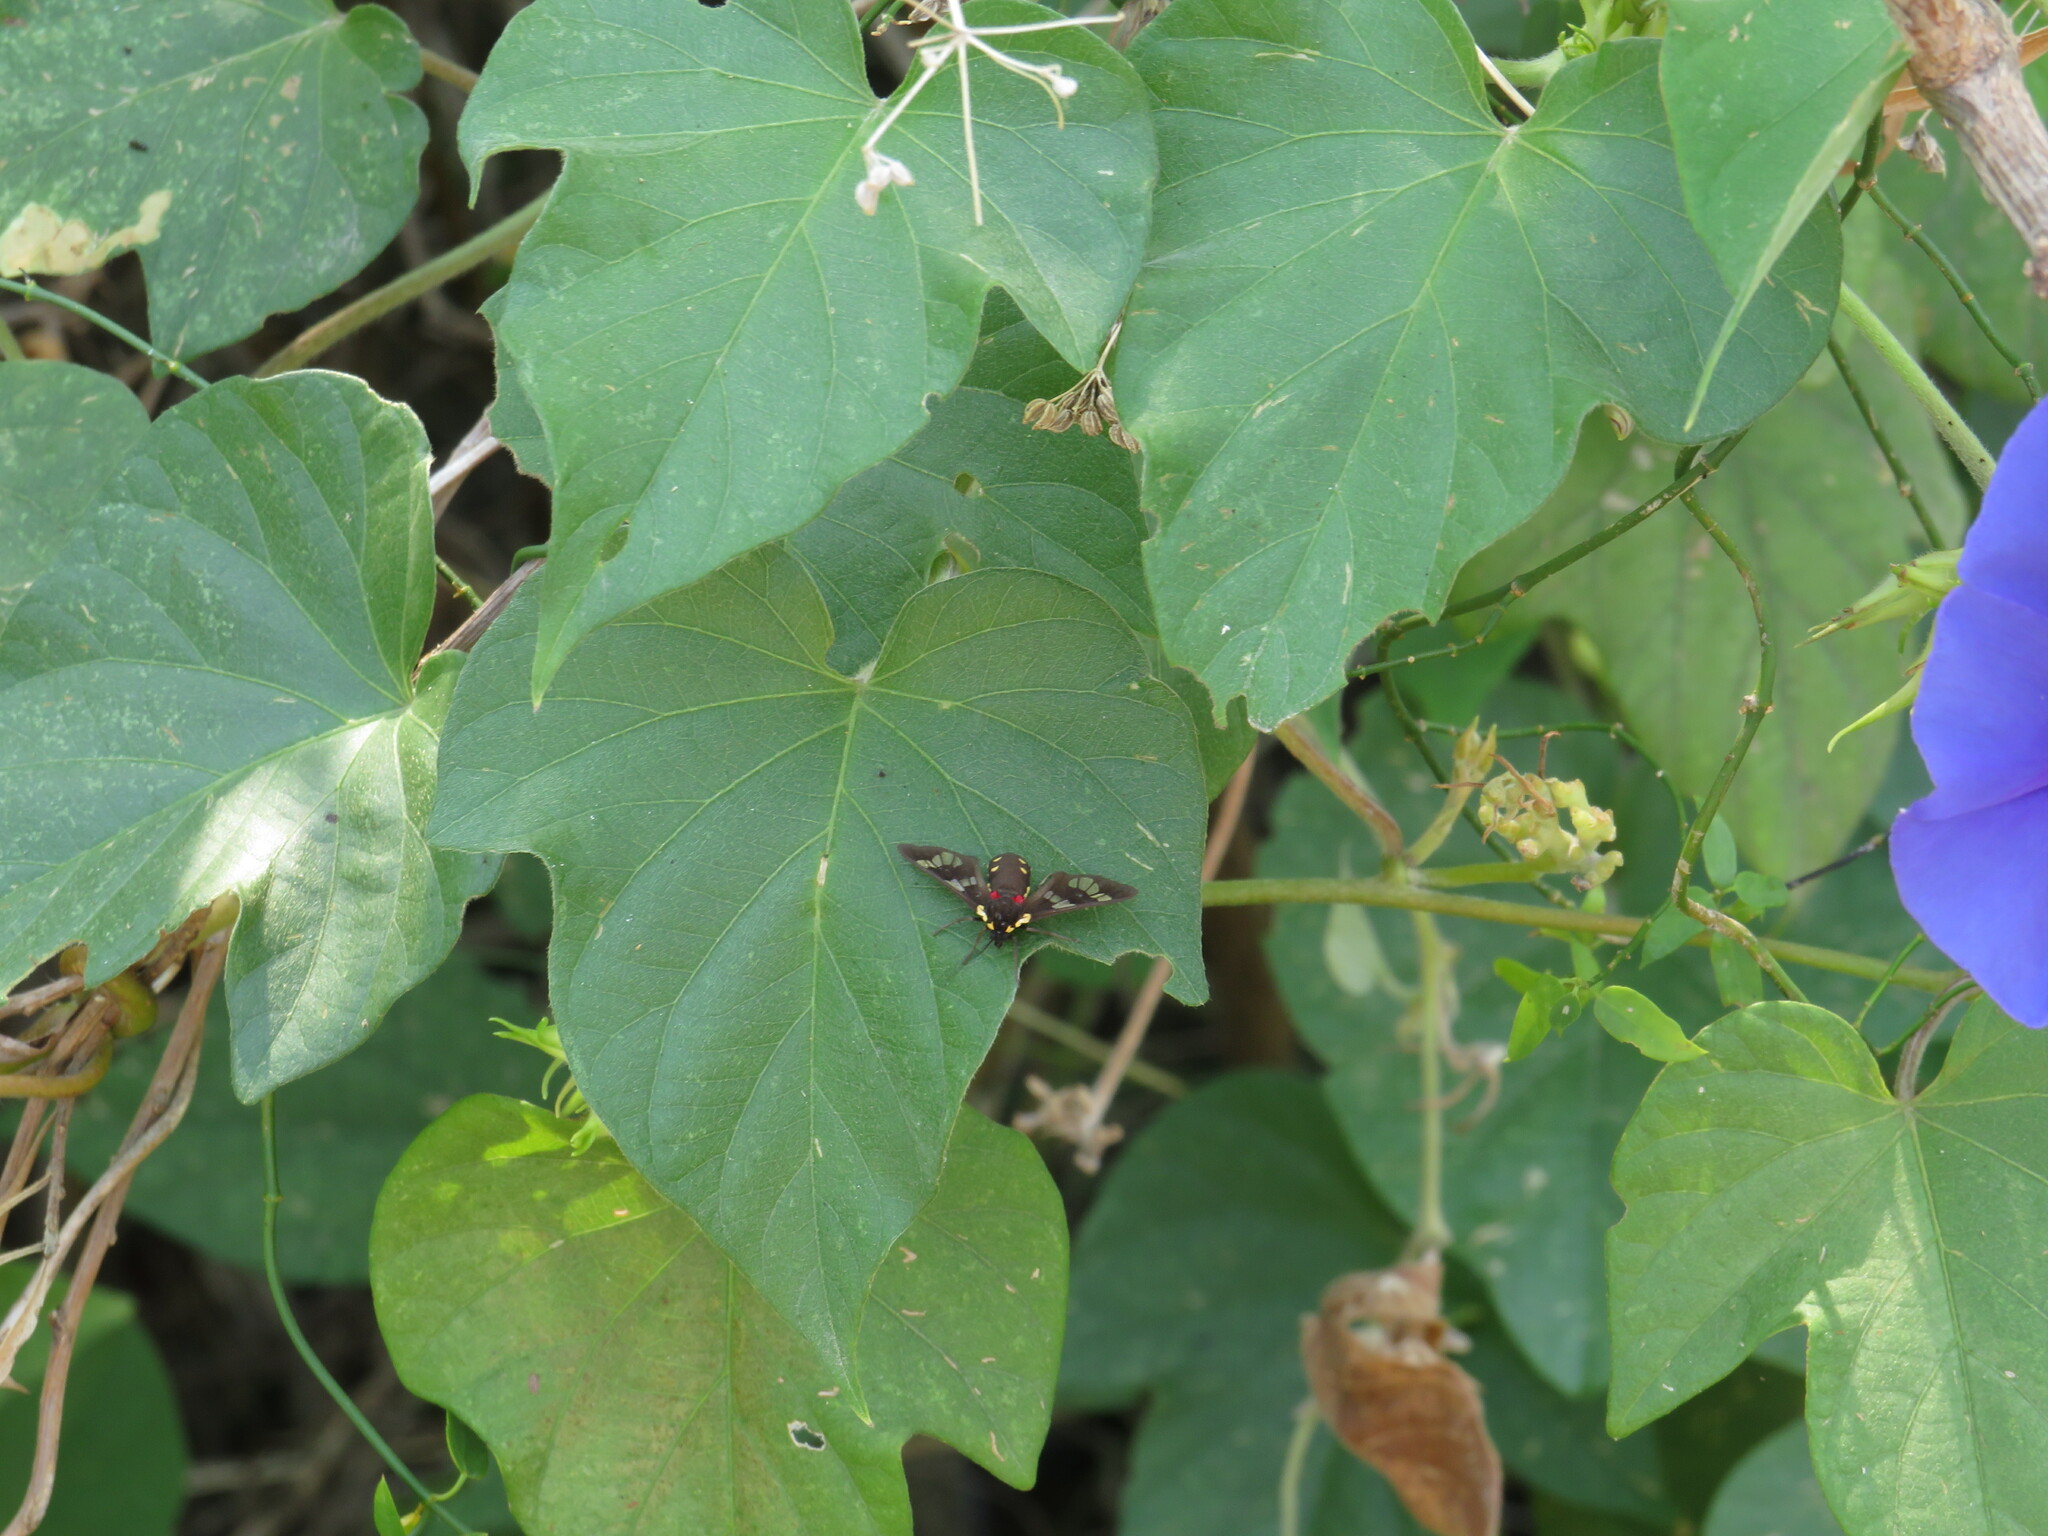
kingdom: Animalia
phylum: Arthropoda
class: Insecta
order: Lepidoptera
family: Erebidae
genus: Eurata
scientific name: Eurata hermione
